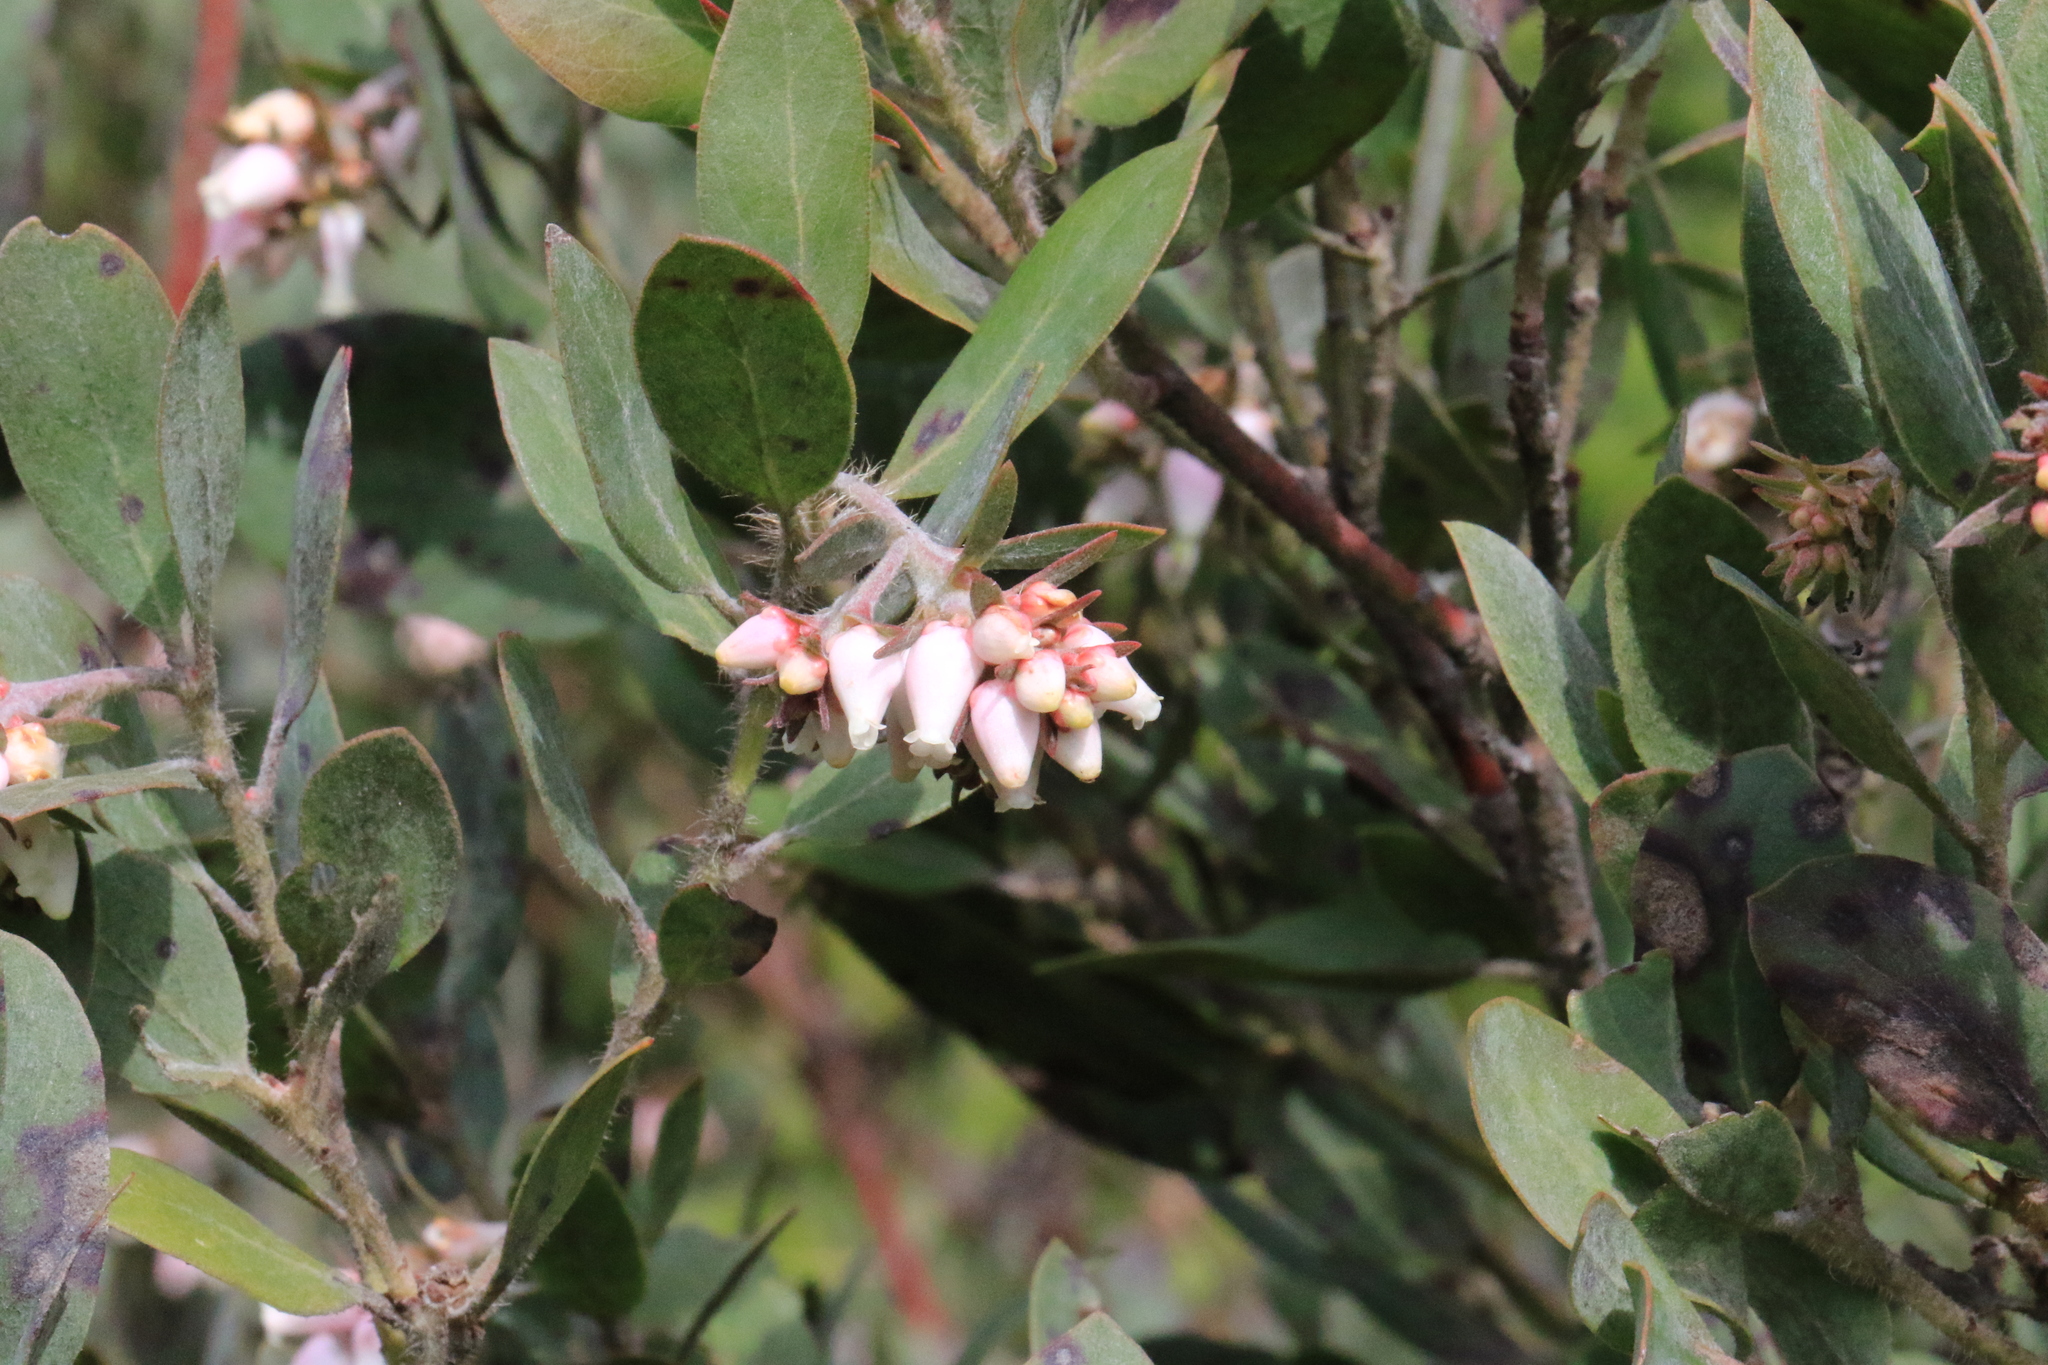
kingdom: Plantae
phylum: Tracheophyta
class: Magnoliopsida
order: Ericales
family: Ericaceae
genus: Arctostaphylos
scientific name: Arctostaphylos columbiana
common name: Bristly bearberry
